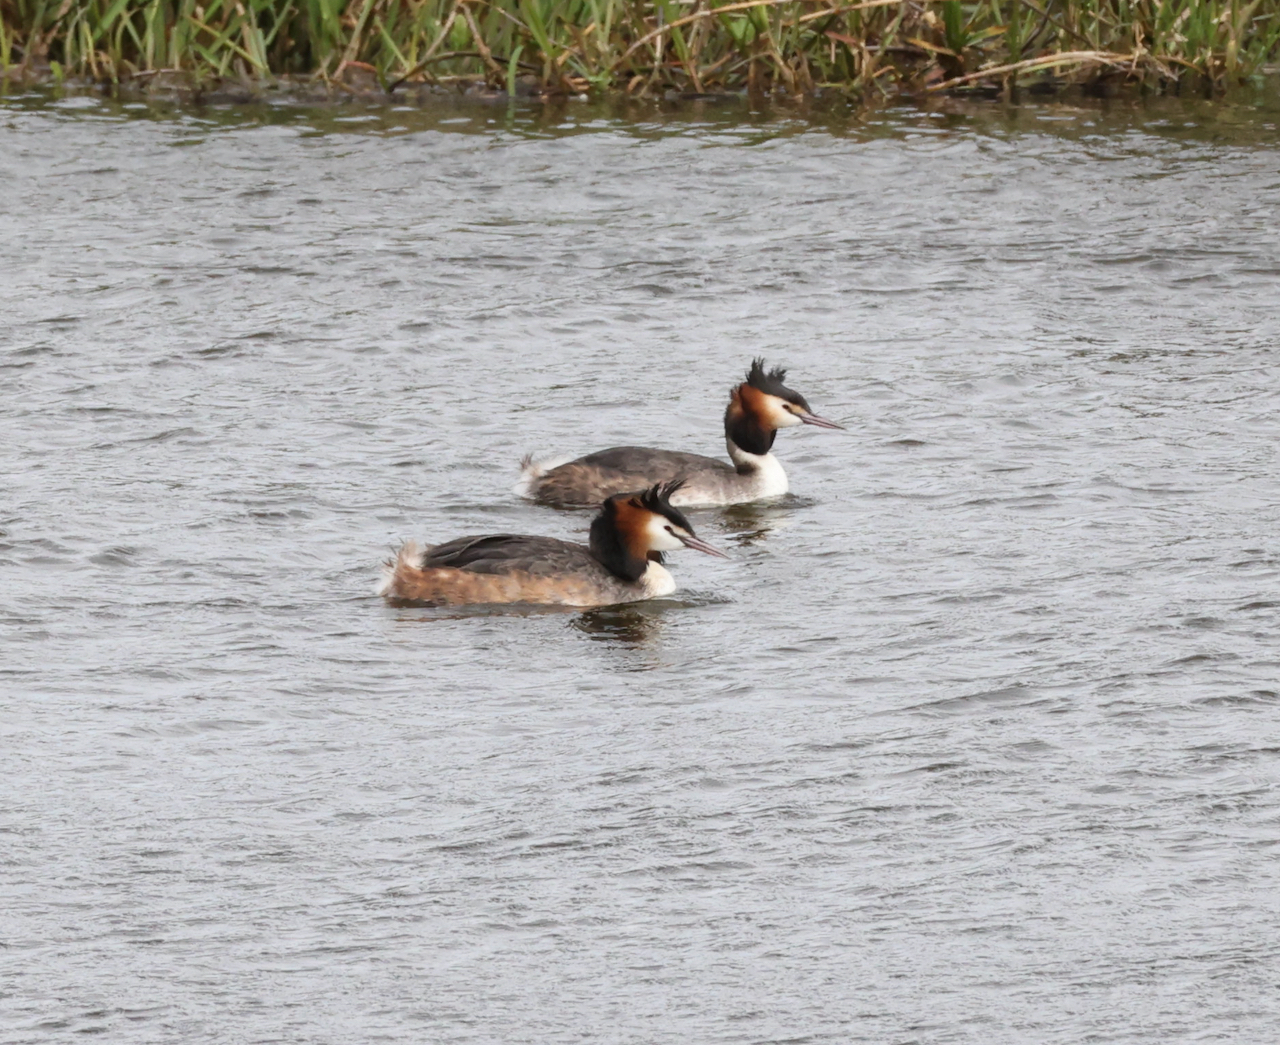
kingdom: Animalia
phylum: Chordata
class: Aves
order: Podicipediformes
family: Podicipedidae
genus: Podiceps
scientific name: Podiceps cristatus
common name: Great crested grebe
